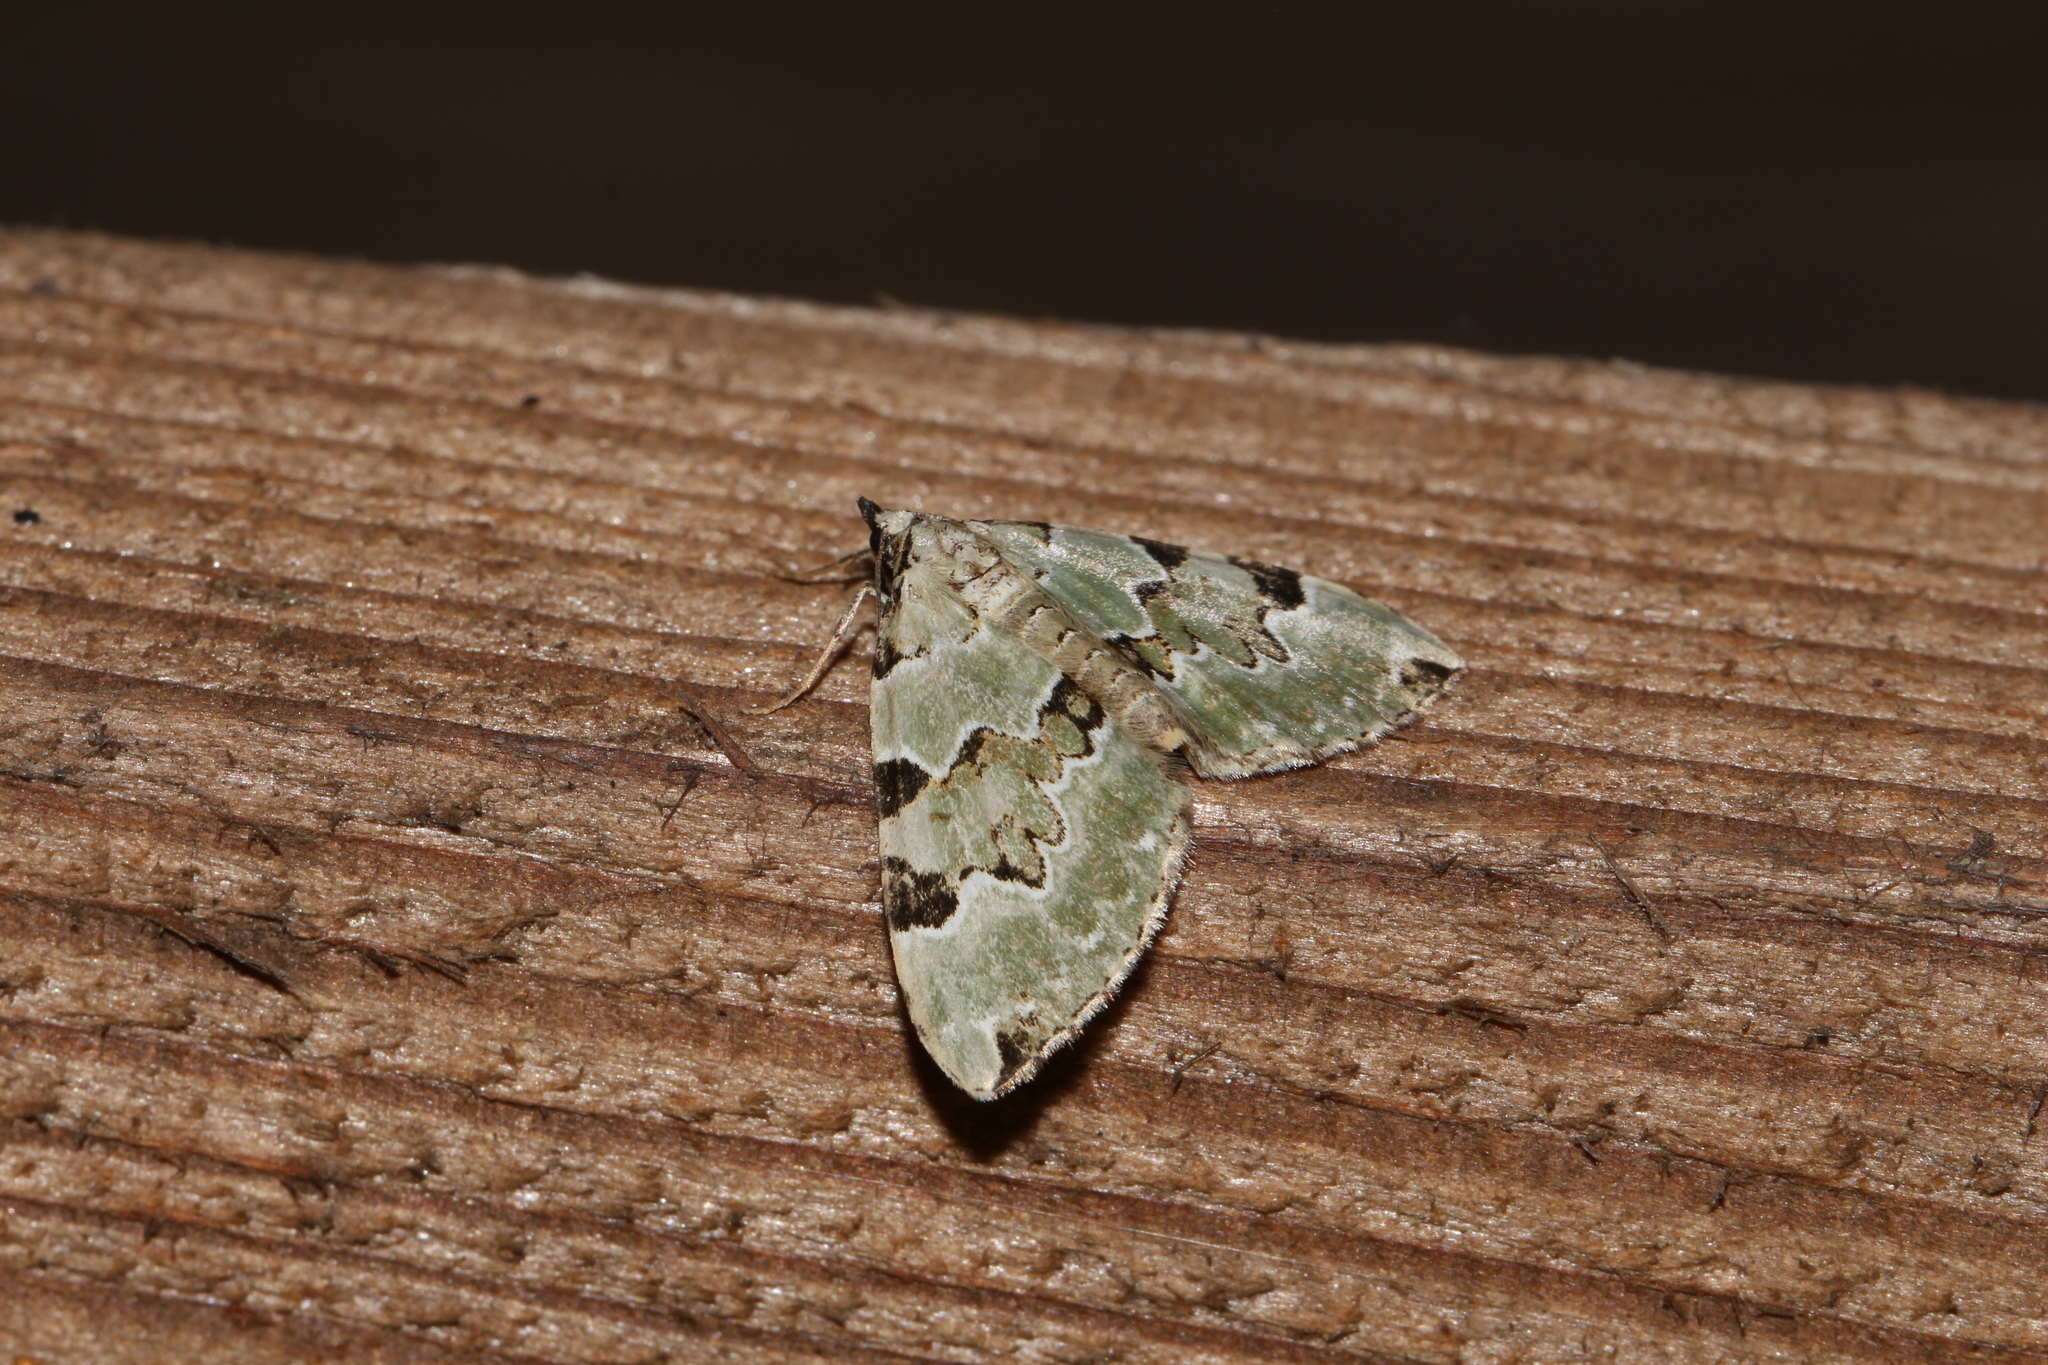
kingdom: Animalia
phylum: Arthropoda
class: Insecta
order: Lepidoptera
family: Geometridae
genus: Colostygia
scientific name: Colostygia pectinataria
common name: Green carpet
